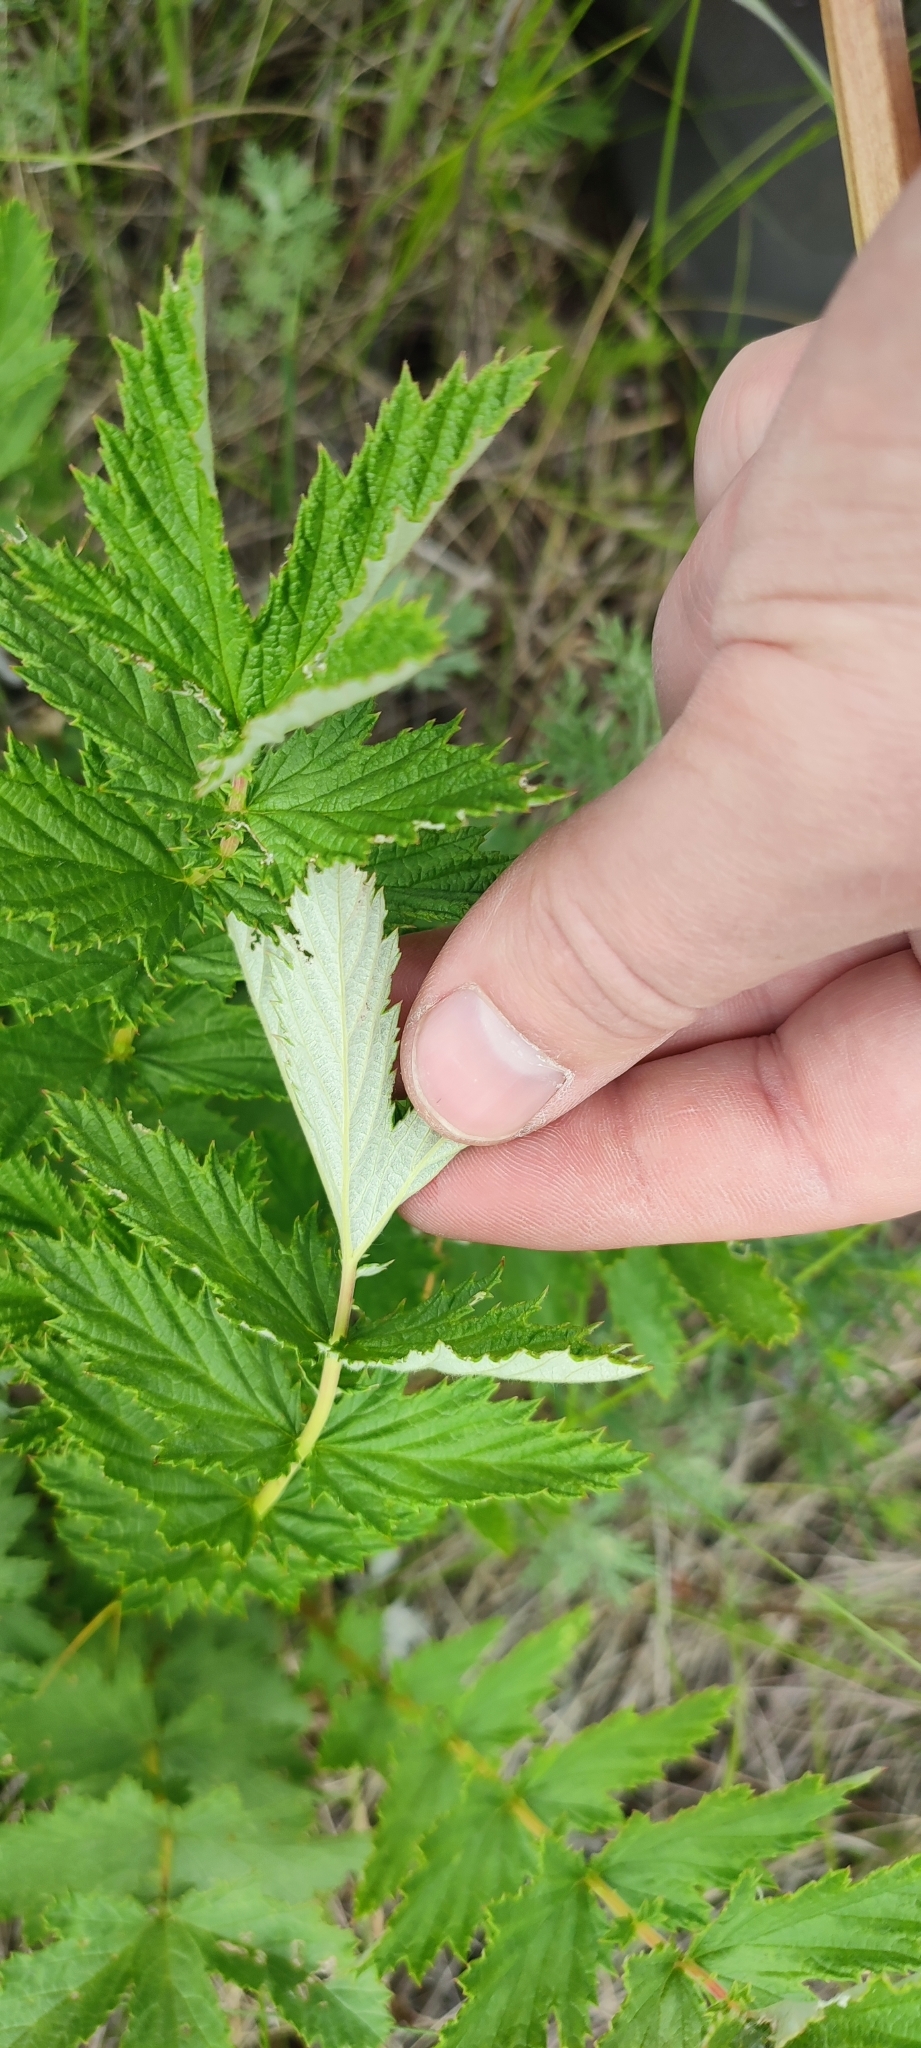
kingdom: Plantae
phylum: Tracheophyta
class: Magnoliopsida
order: Rosales
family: Rosaceae
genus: Filipendula
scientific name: Filipendula ulmaria
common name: Meadowsweet
